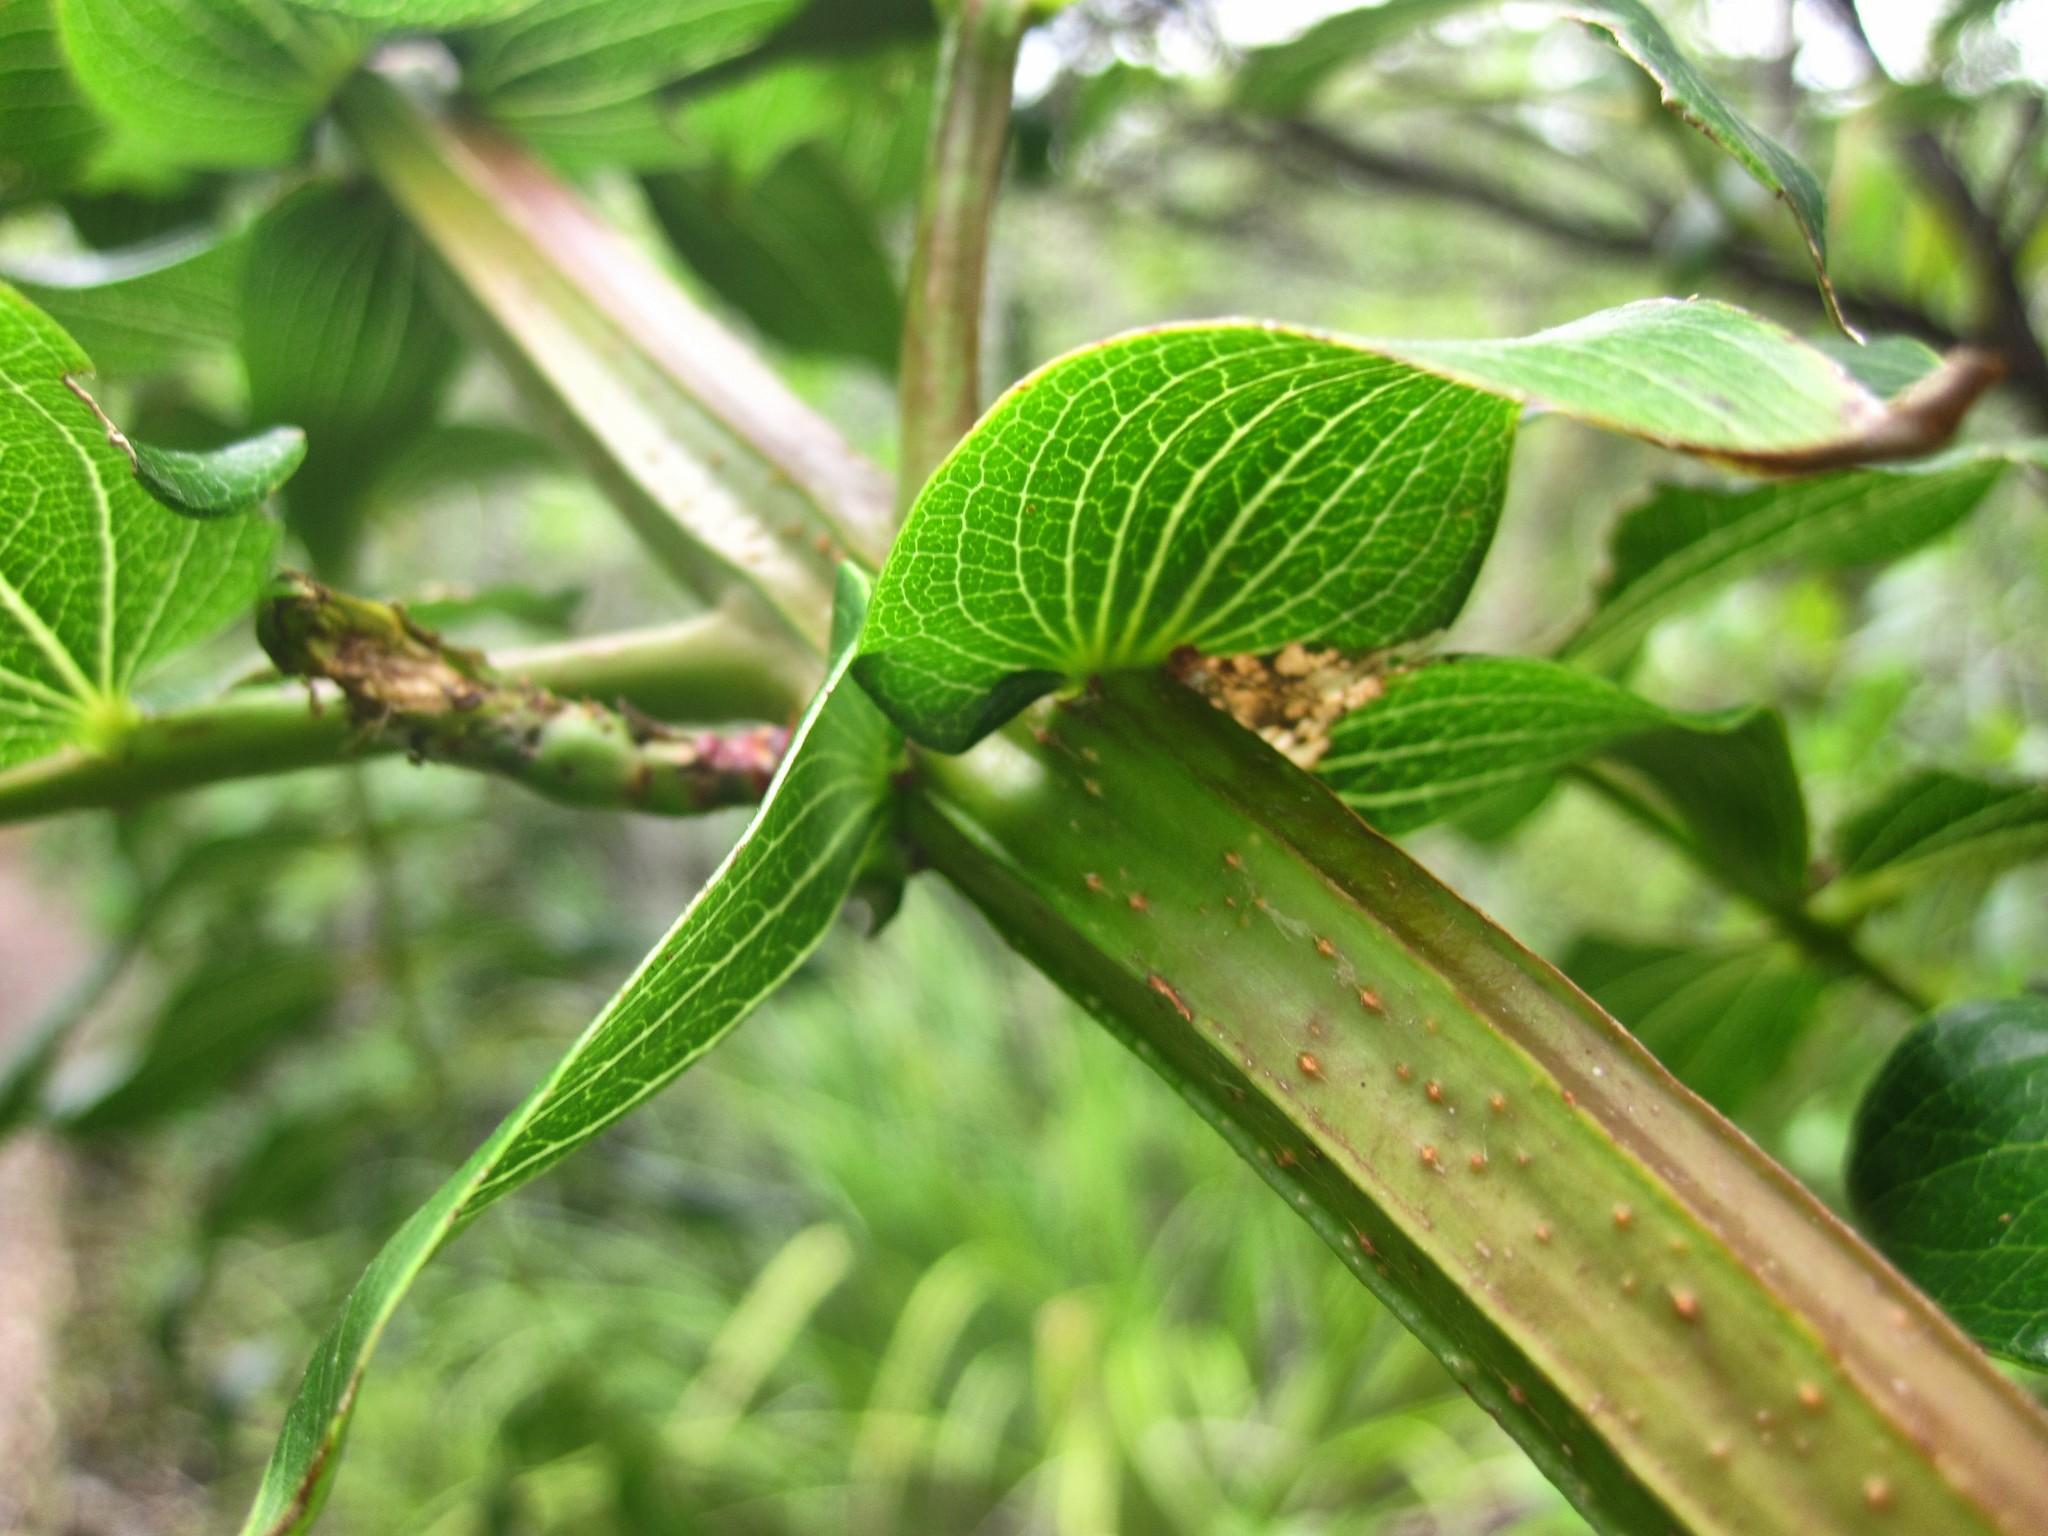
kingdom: Plantae
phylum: Tracheophyta
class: Magnoliopsida
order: Cucurbitales
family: Coriariaceae
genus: Coriaria
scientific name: Coriaria arborea
